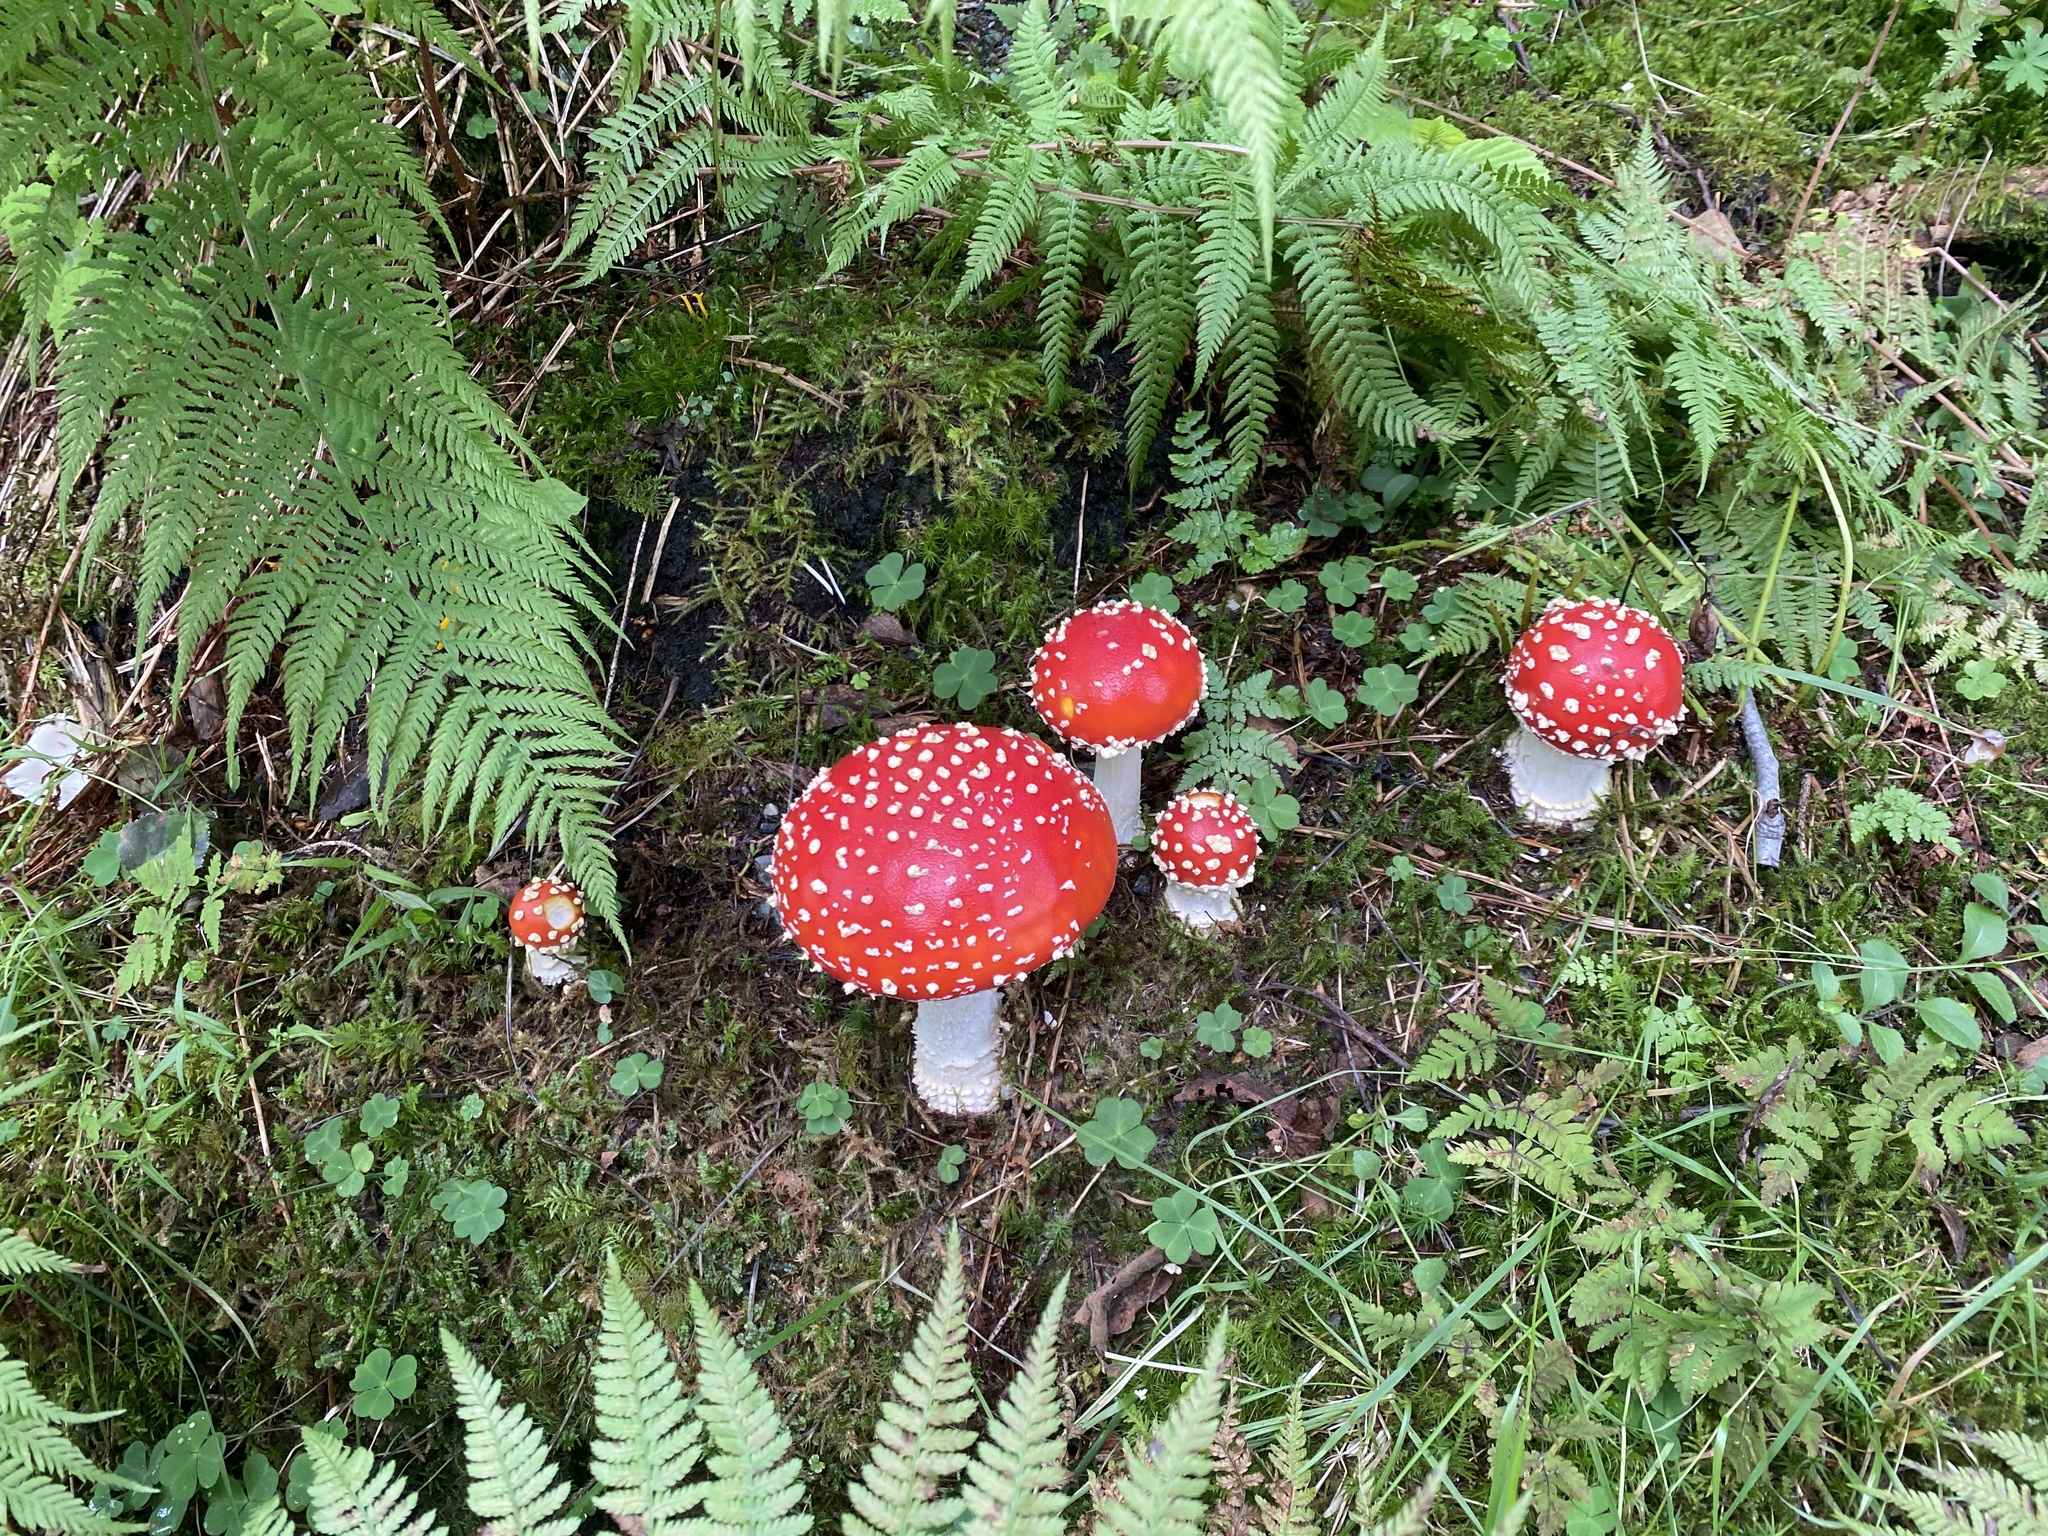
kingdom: Fungi
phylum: Basidiomycota
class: Agaricomycetes
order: Agaricales
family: Amanitaceae
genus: Amanita
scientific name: Amanita muscaria
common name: Fly agaric
